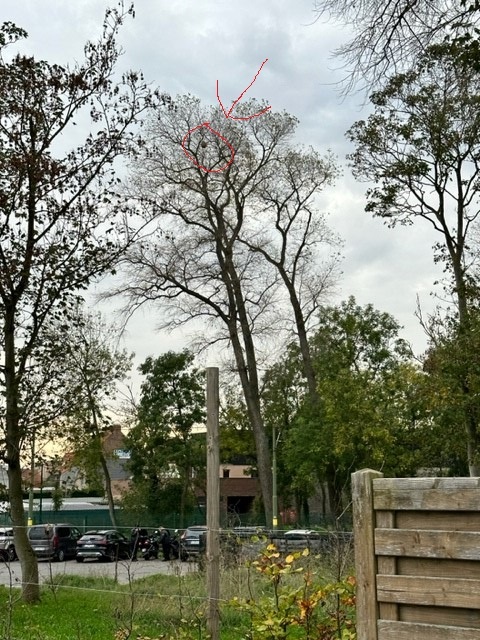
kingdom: Animalia
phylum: Arthropoda
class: Insecta
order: Hymenoptera
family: Vespidae
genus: Vespa
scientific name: Vespa velutina
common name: Asian hornet
